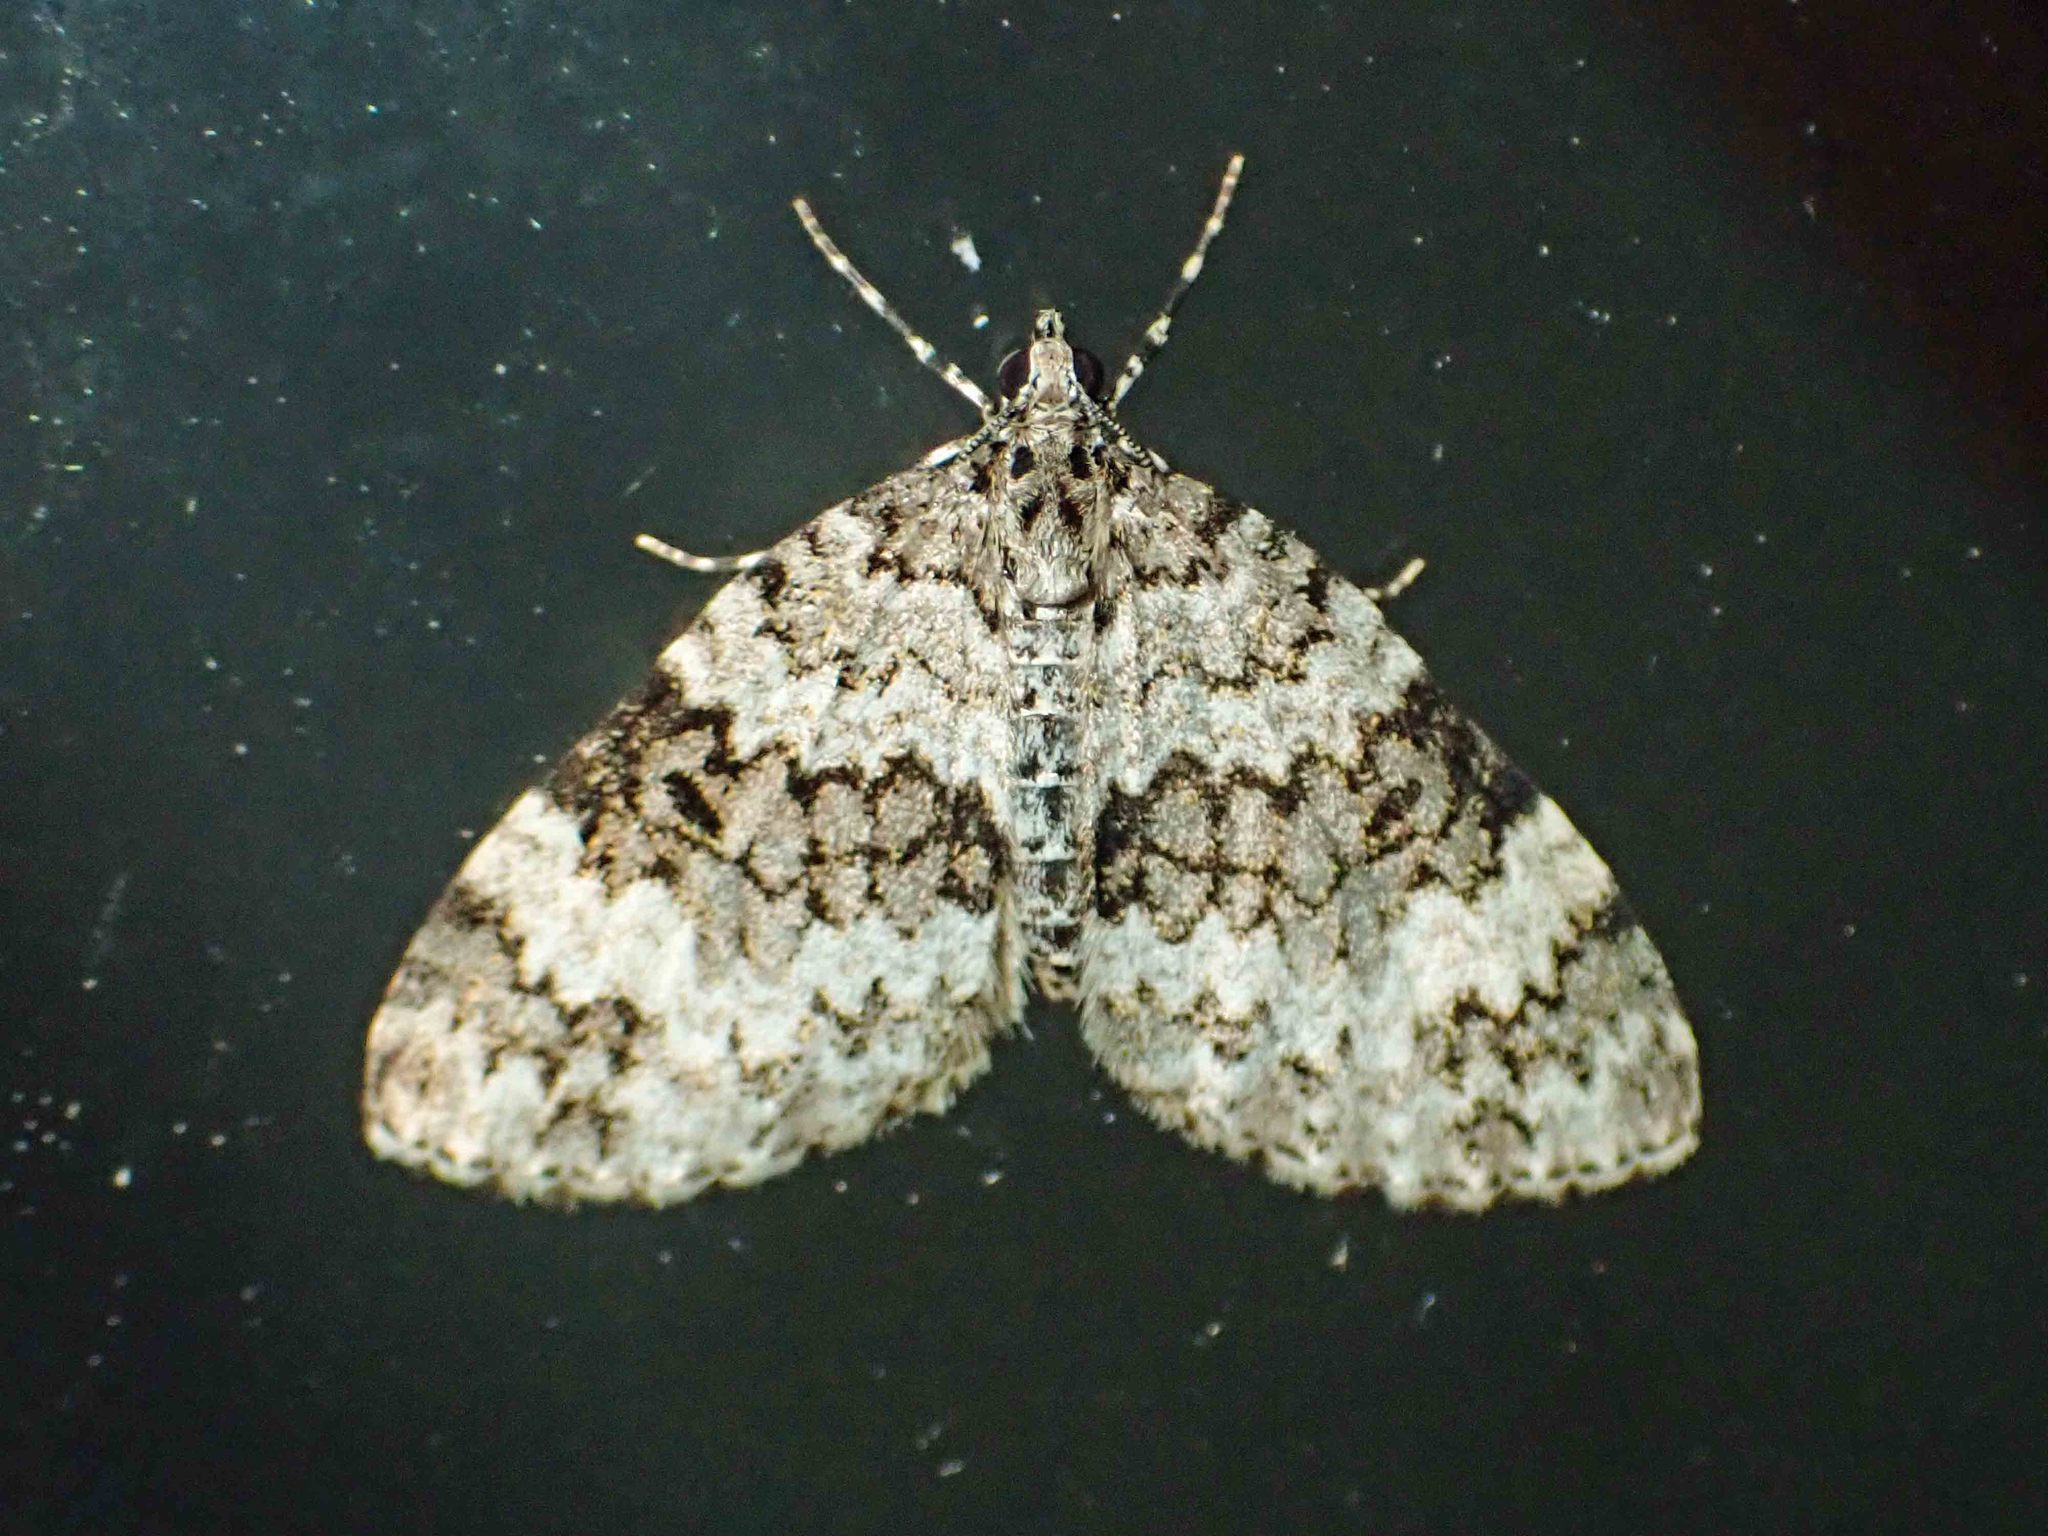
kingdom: Animalia
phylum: Arthropoda
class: Insecta
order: Lepidoptera
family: Geometridae
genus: Spargania
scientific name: Spargania magnoliata
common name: Double-banded carpet
